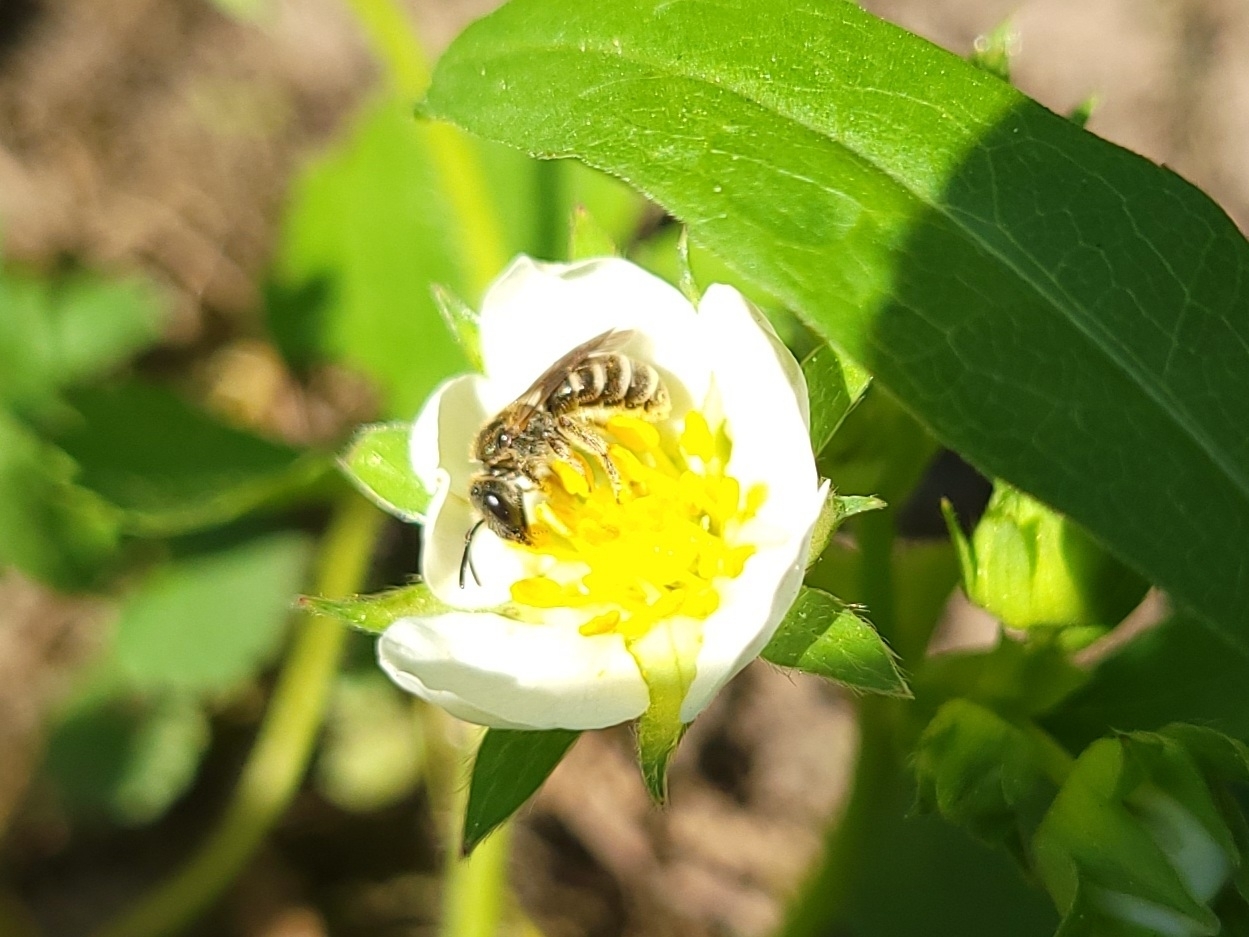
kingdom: Animalia
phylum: Arthropoda
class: Insecta
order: Hymenoptera
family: Halictidae
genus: Halictus
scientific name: Halictus confusus
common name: Southern bronze furrow bee
